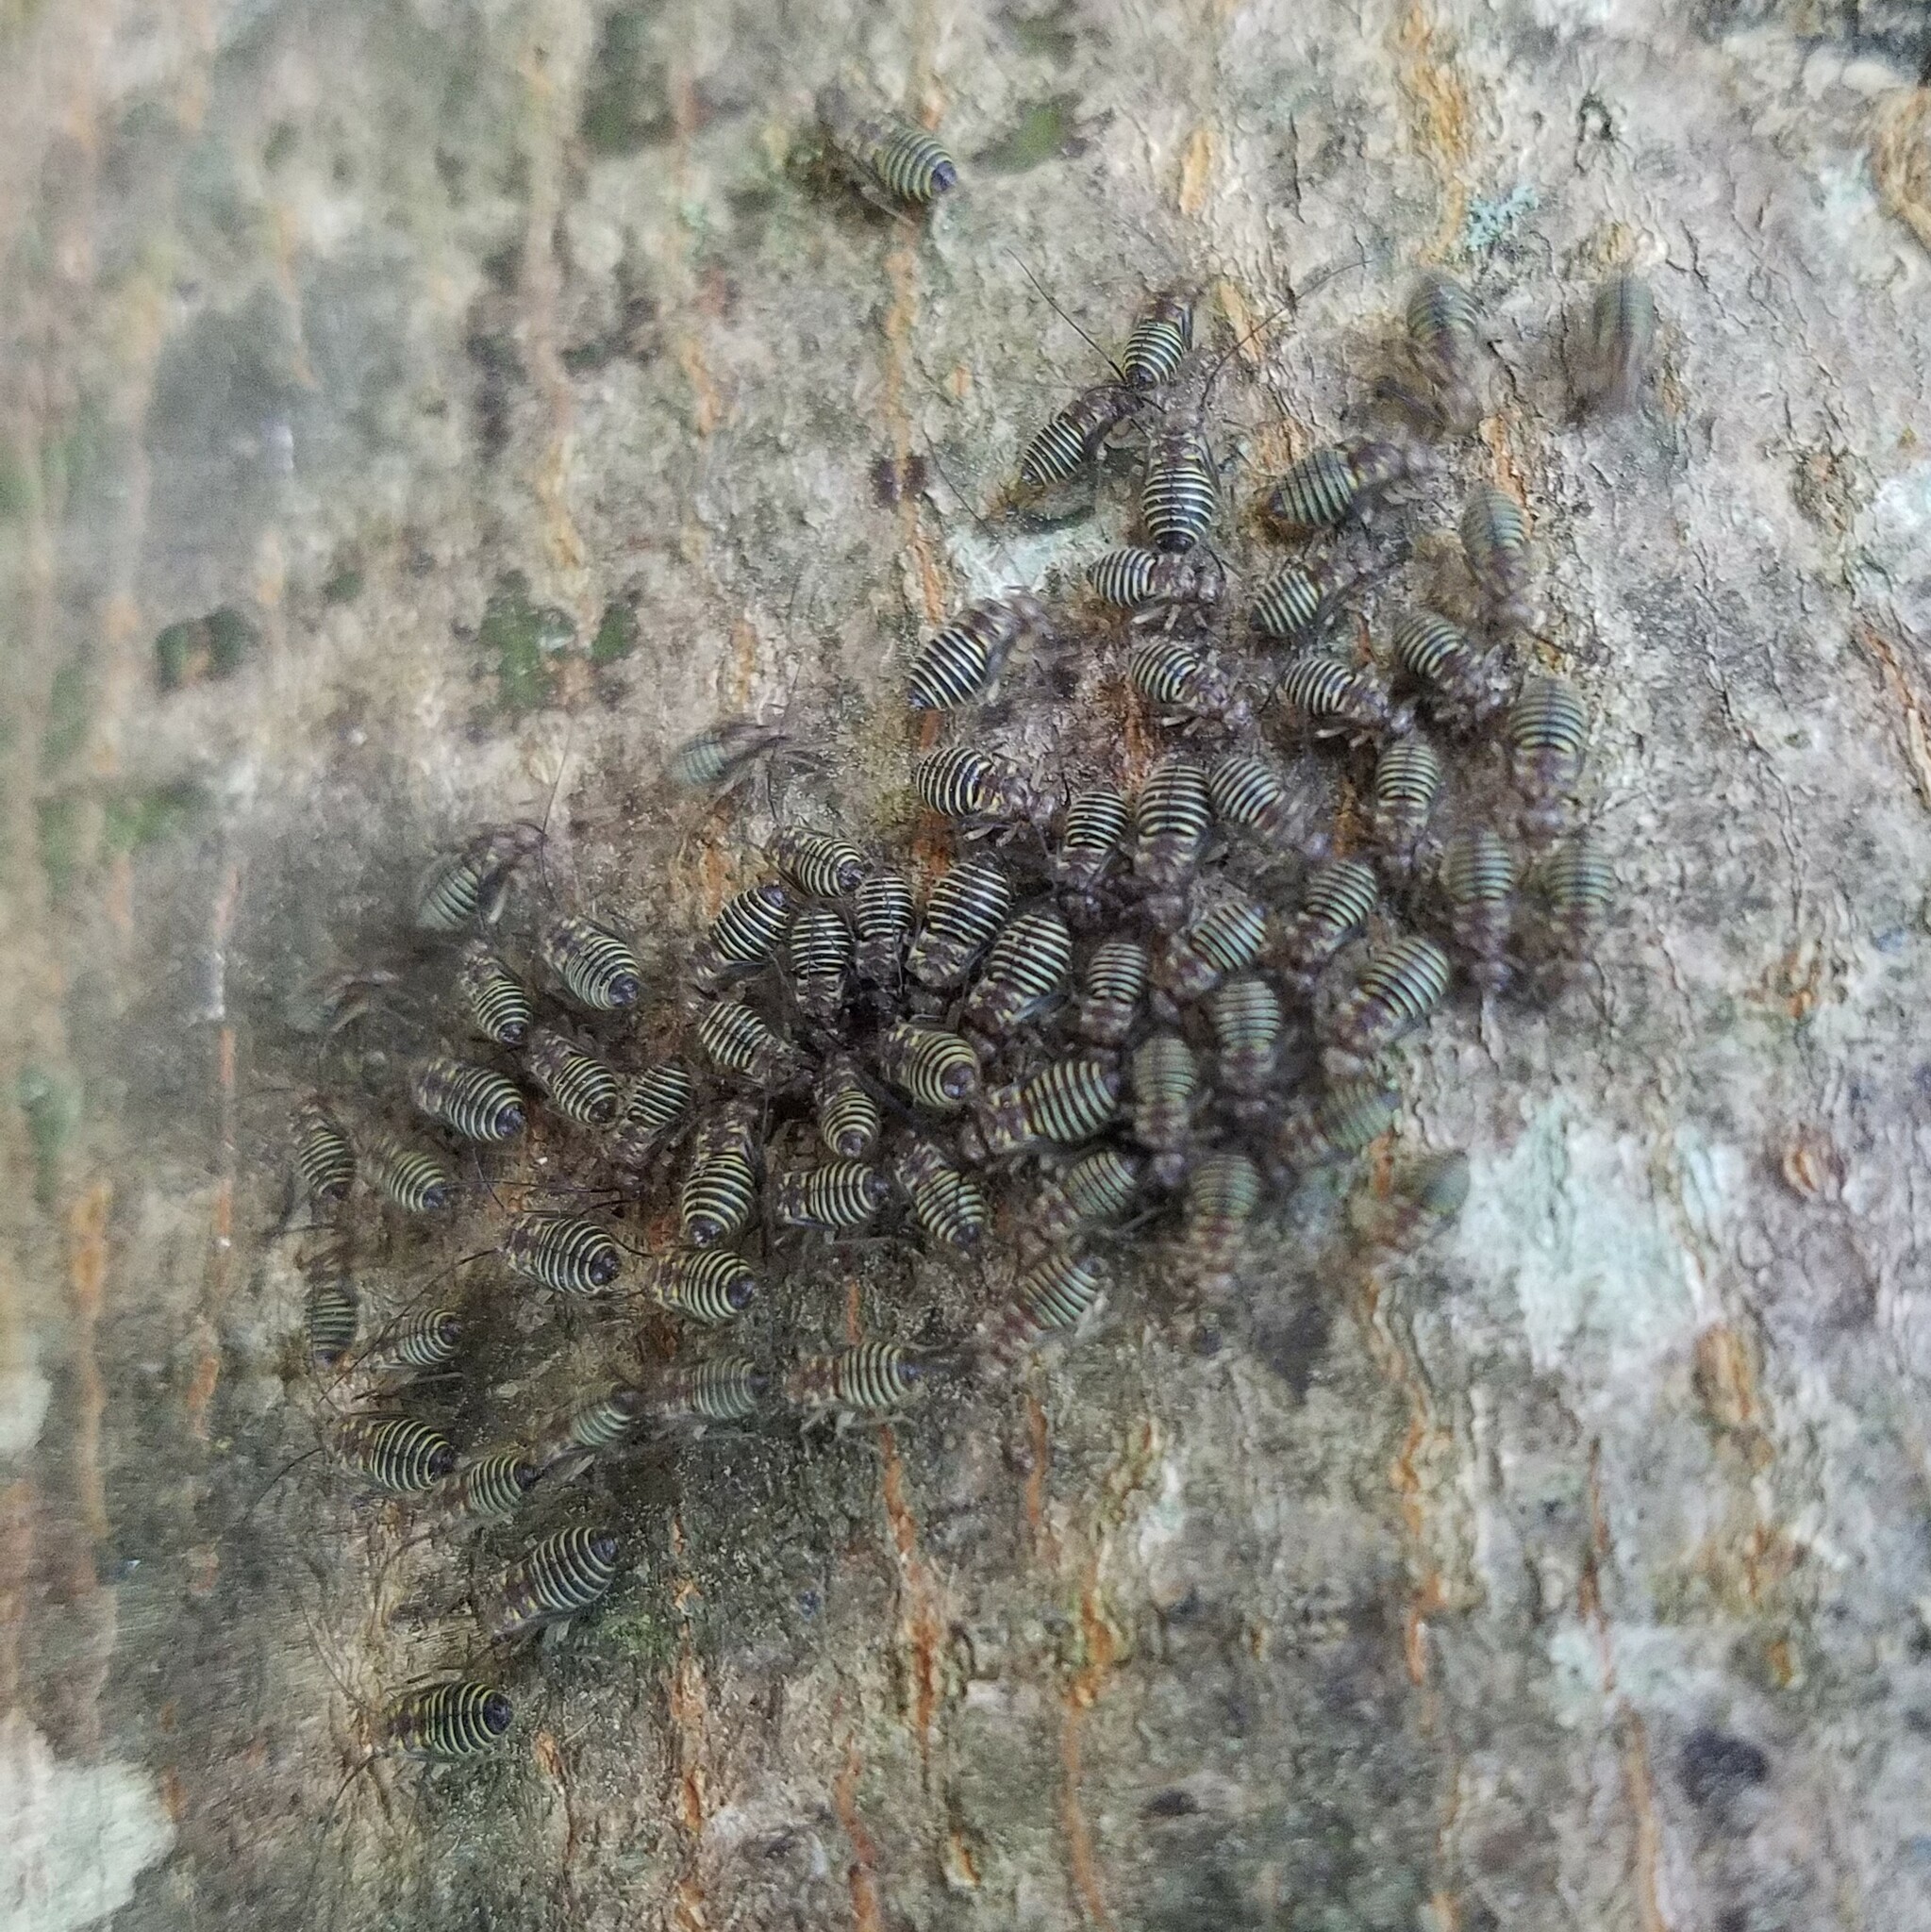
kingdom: Animalia
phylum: Arthropoda
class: Insecta
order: Psocodea
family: Psocidae
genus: Cerastipsocus
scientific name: Cerastipsocus venosus
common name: Tree cattle
